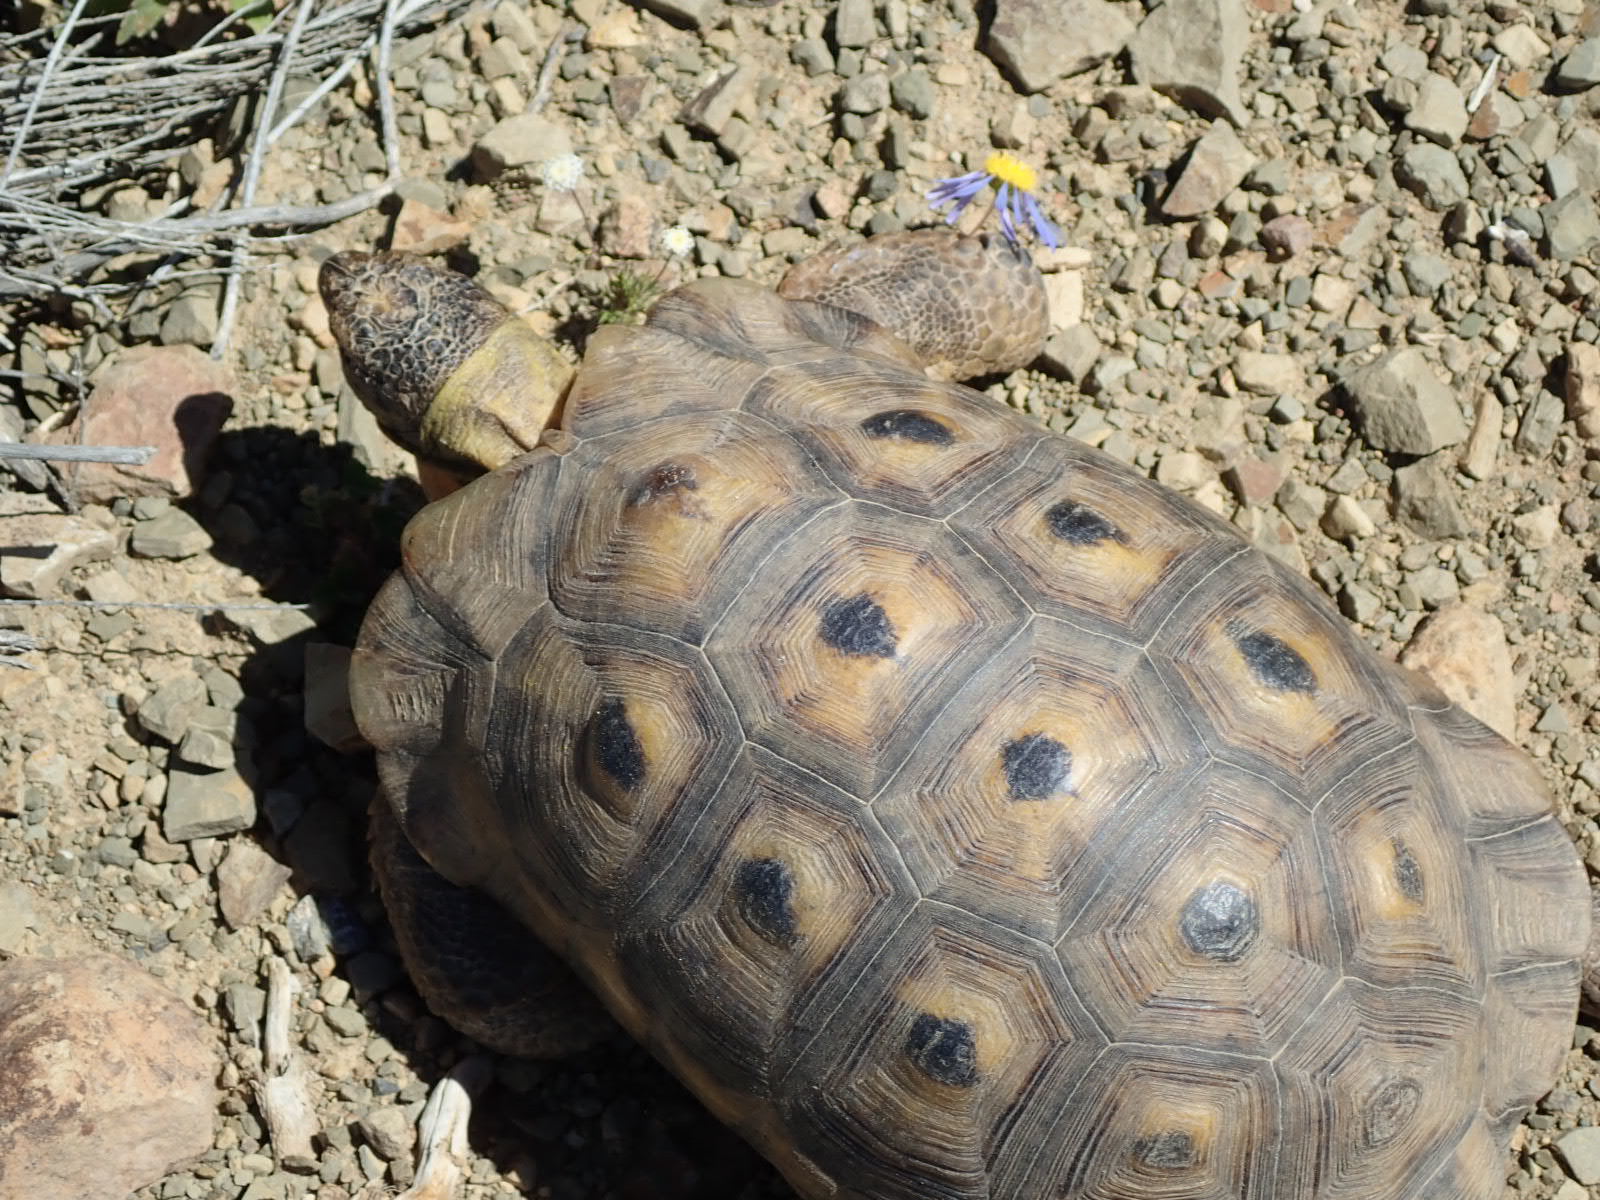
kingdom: Animalia
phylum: Chordata
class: Testudines
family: Testudinidae
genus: Chersina
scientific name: Chersina angulata
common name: South african bowsprit tortoise
